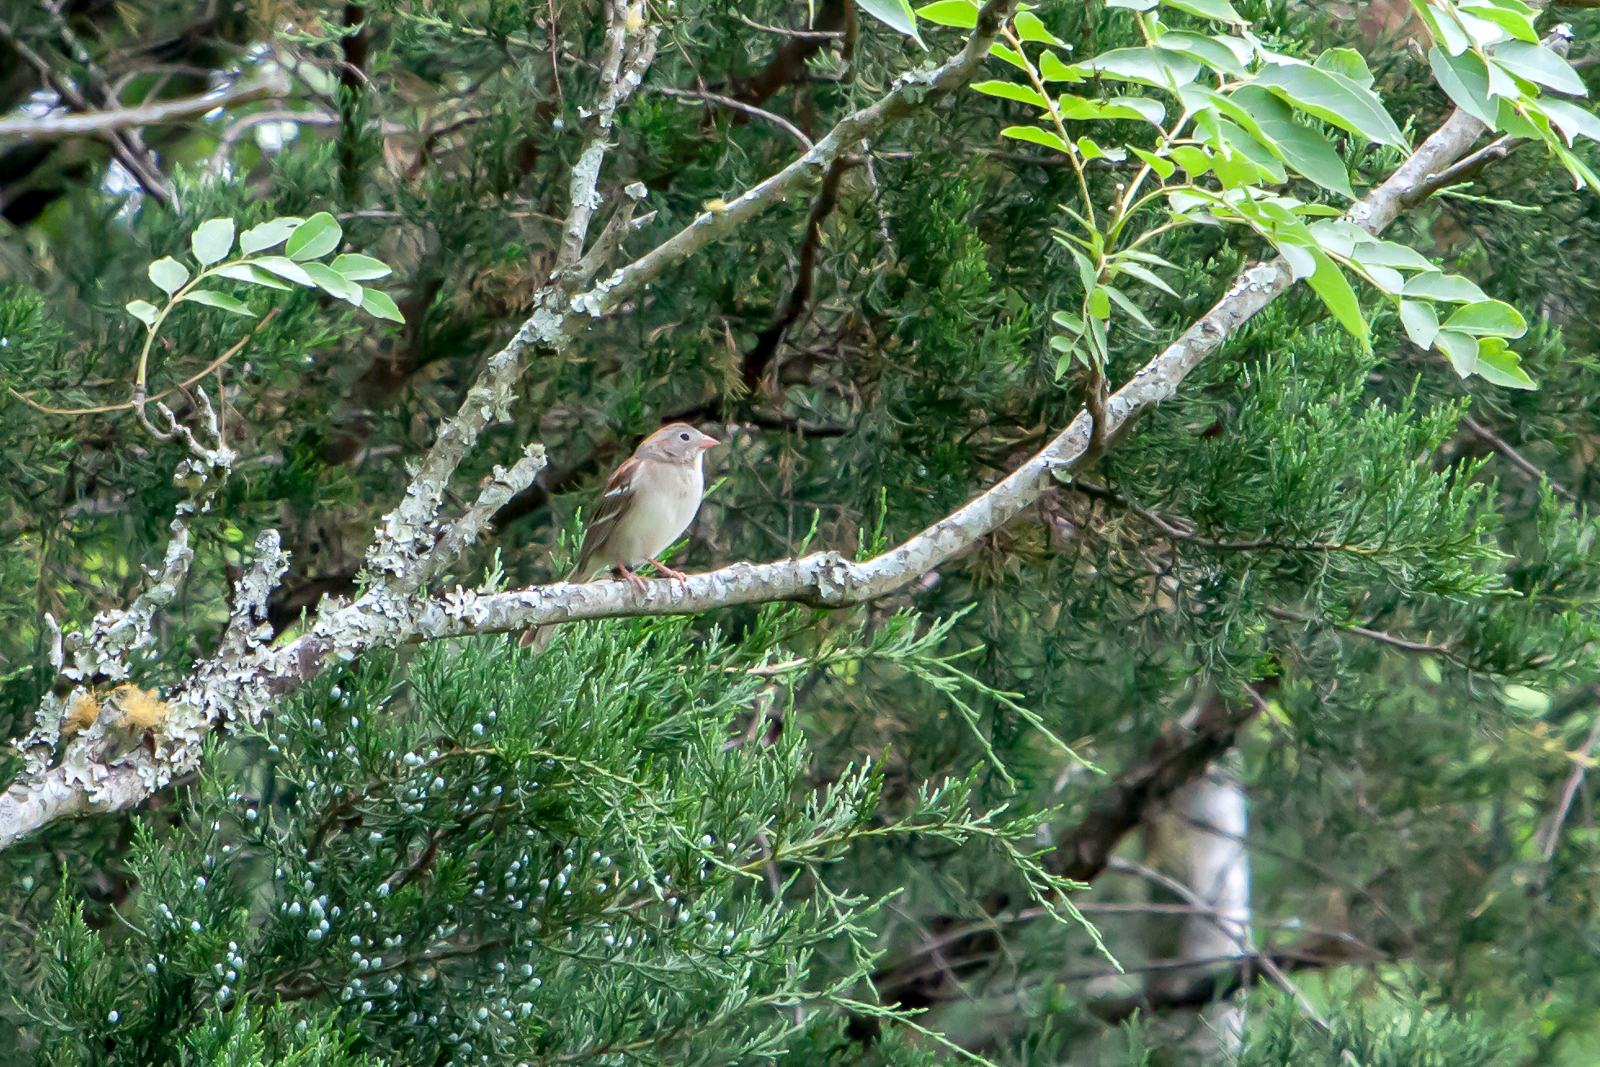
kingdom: Animalia
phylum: Chordata
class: Aves
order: Passeriformes
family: Passerellidae
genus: Spizella
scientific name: Spizella pusilla
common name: Field sparrow
